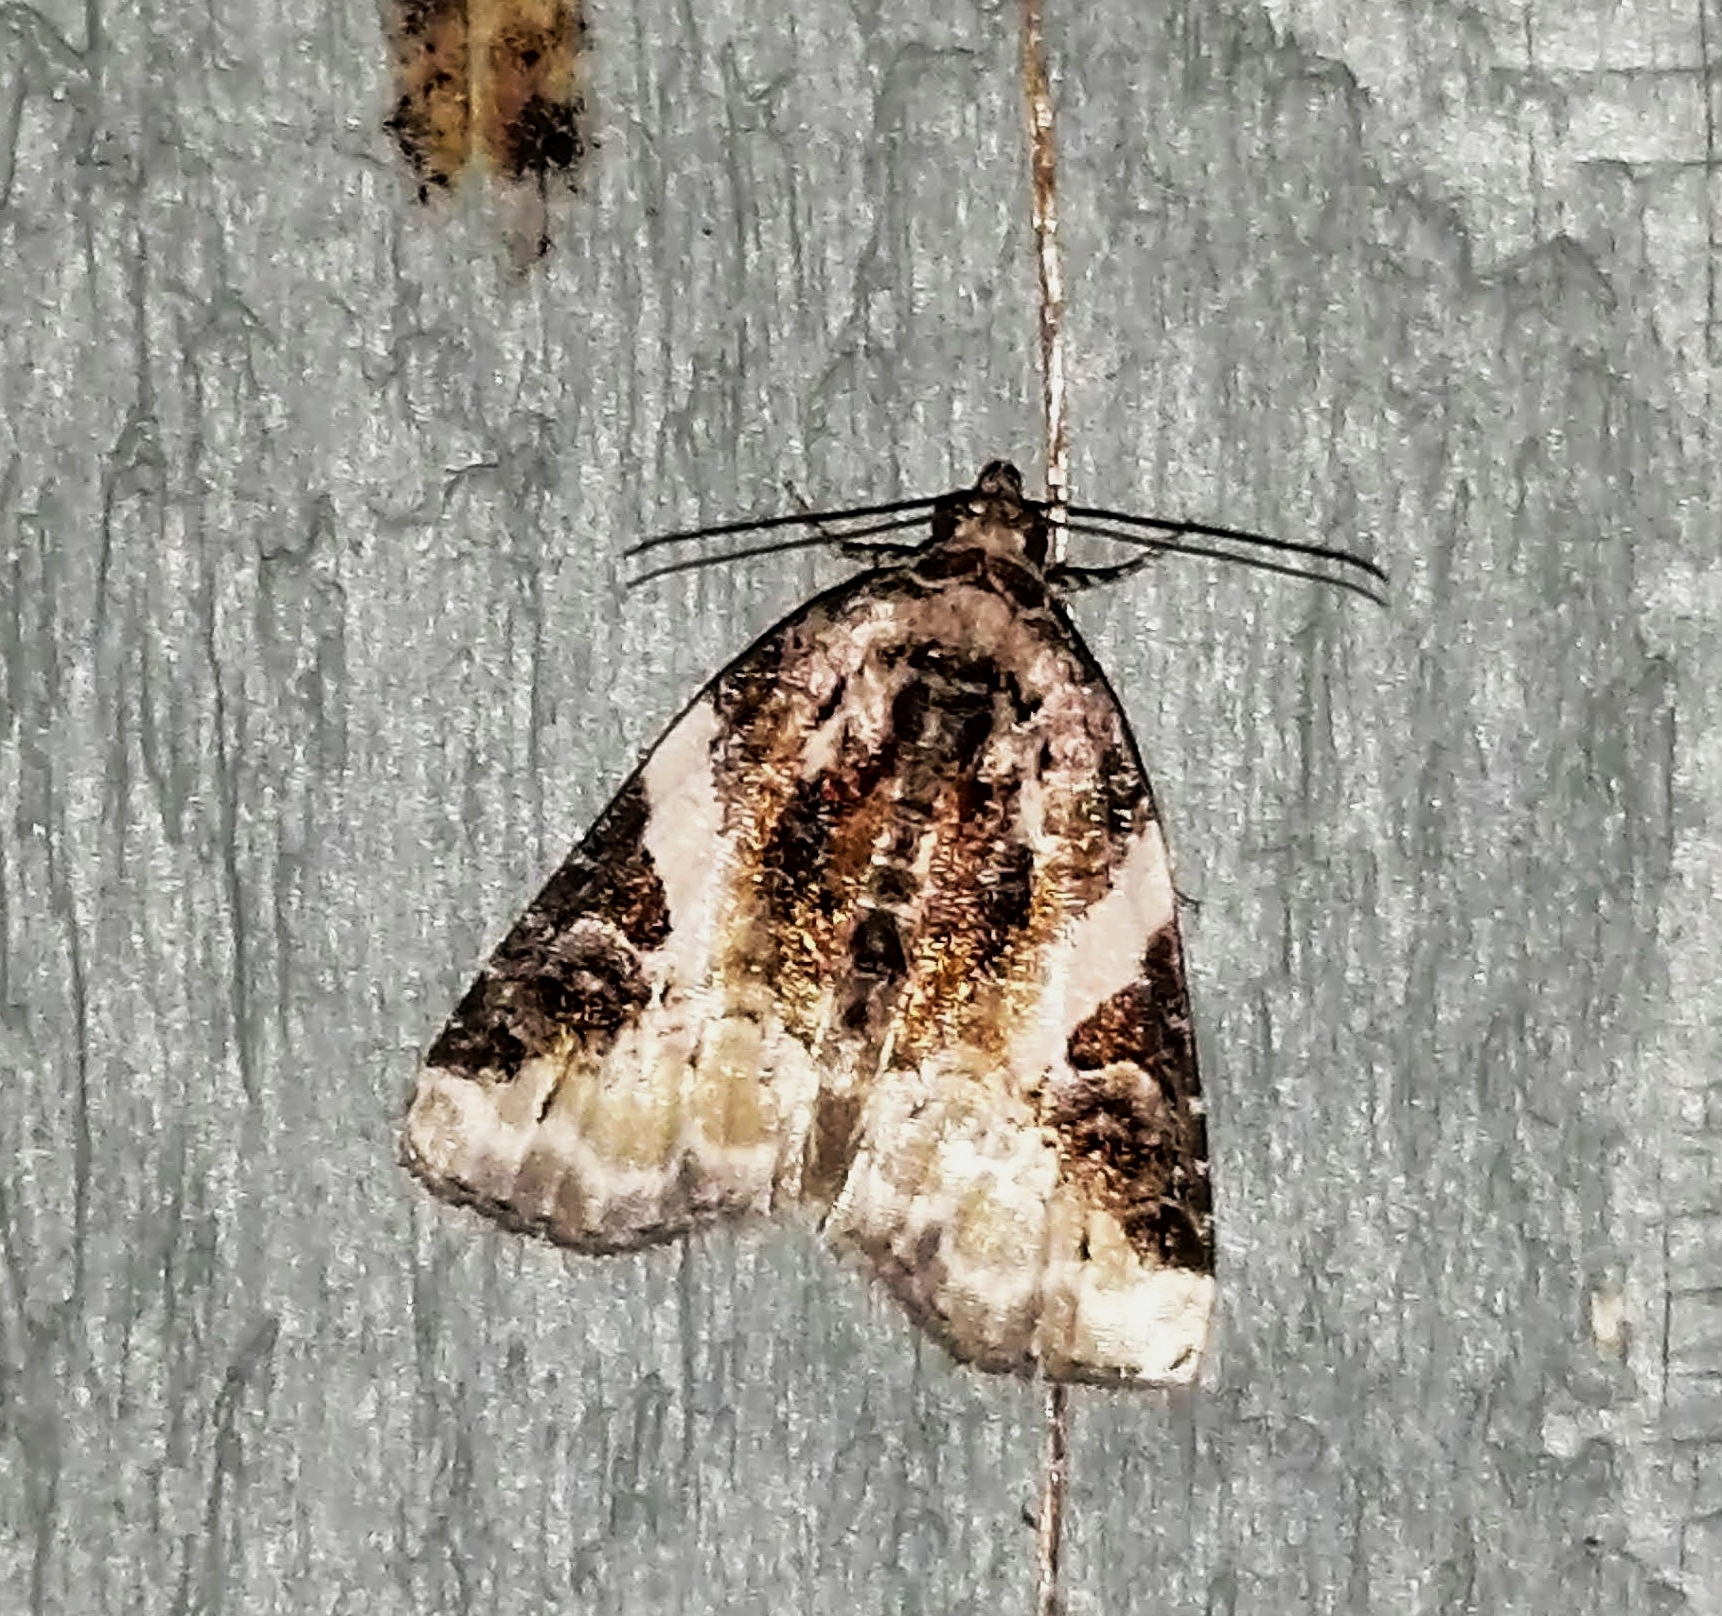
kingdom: Animalia
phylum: Arthropoda
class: Insecta
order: Lepidoptera
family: Noctuidae
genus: Pseudeustrotia
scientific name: Pseudeustrotia carneola
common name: Pink-barred lithacodia moth
